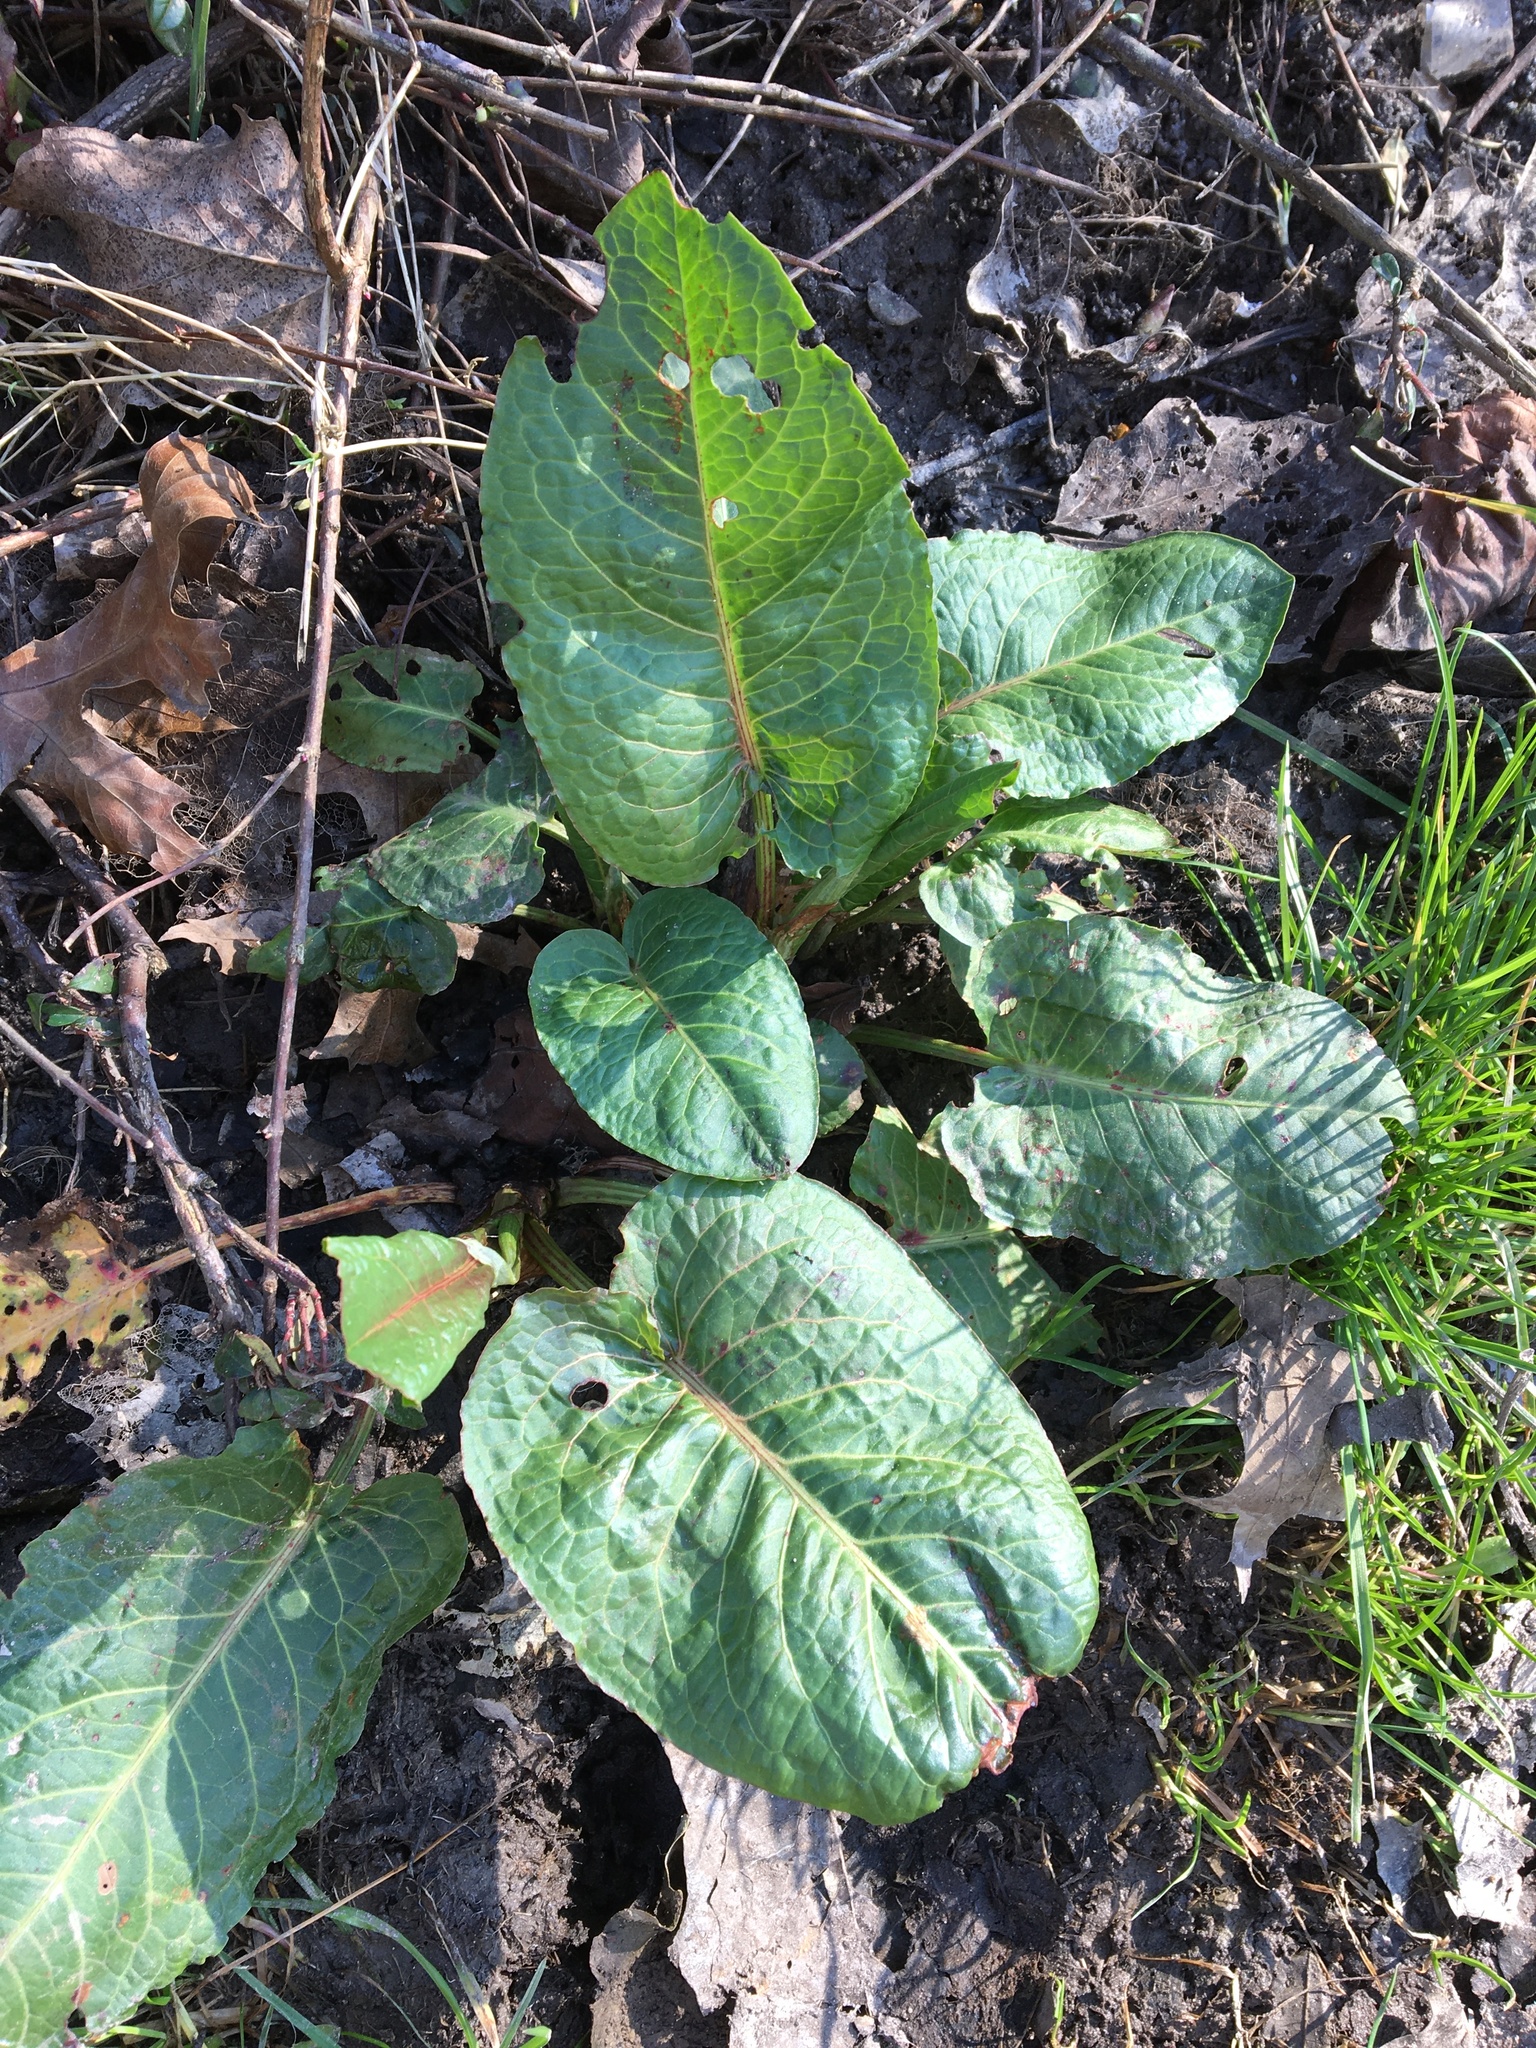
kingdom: Plantae
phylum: Tracheophyta
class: Magnoliopsida
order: Caryophyllales
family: Polygonaceae
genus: Rumex
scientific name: Rumex obtusifolius
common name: Bitter dock
